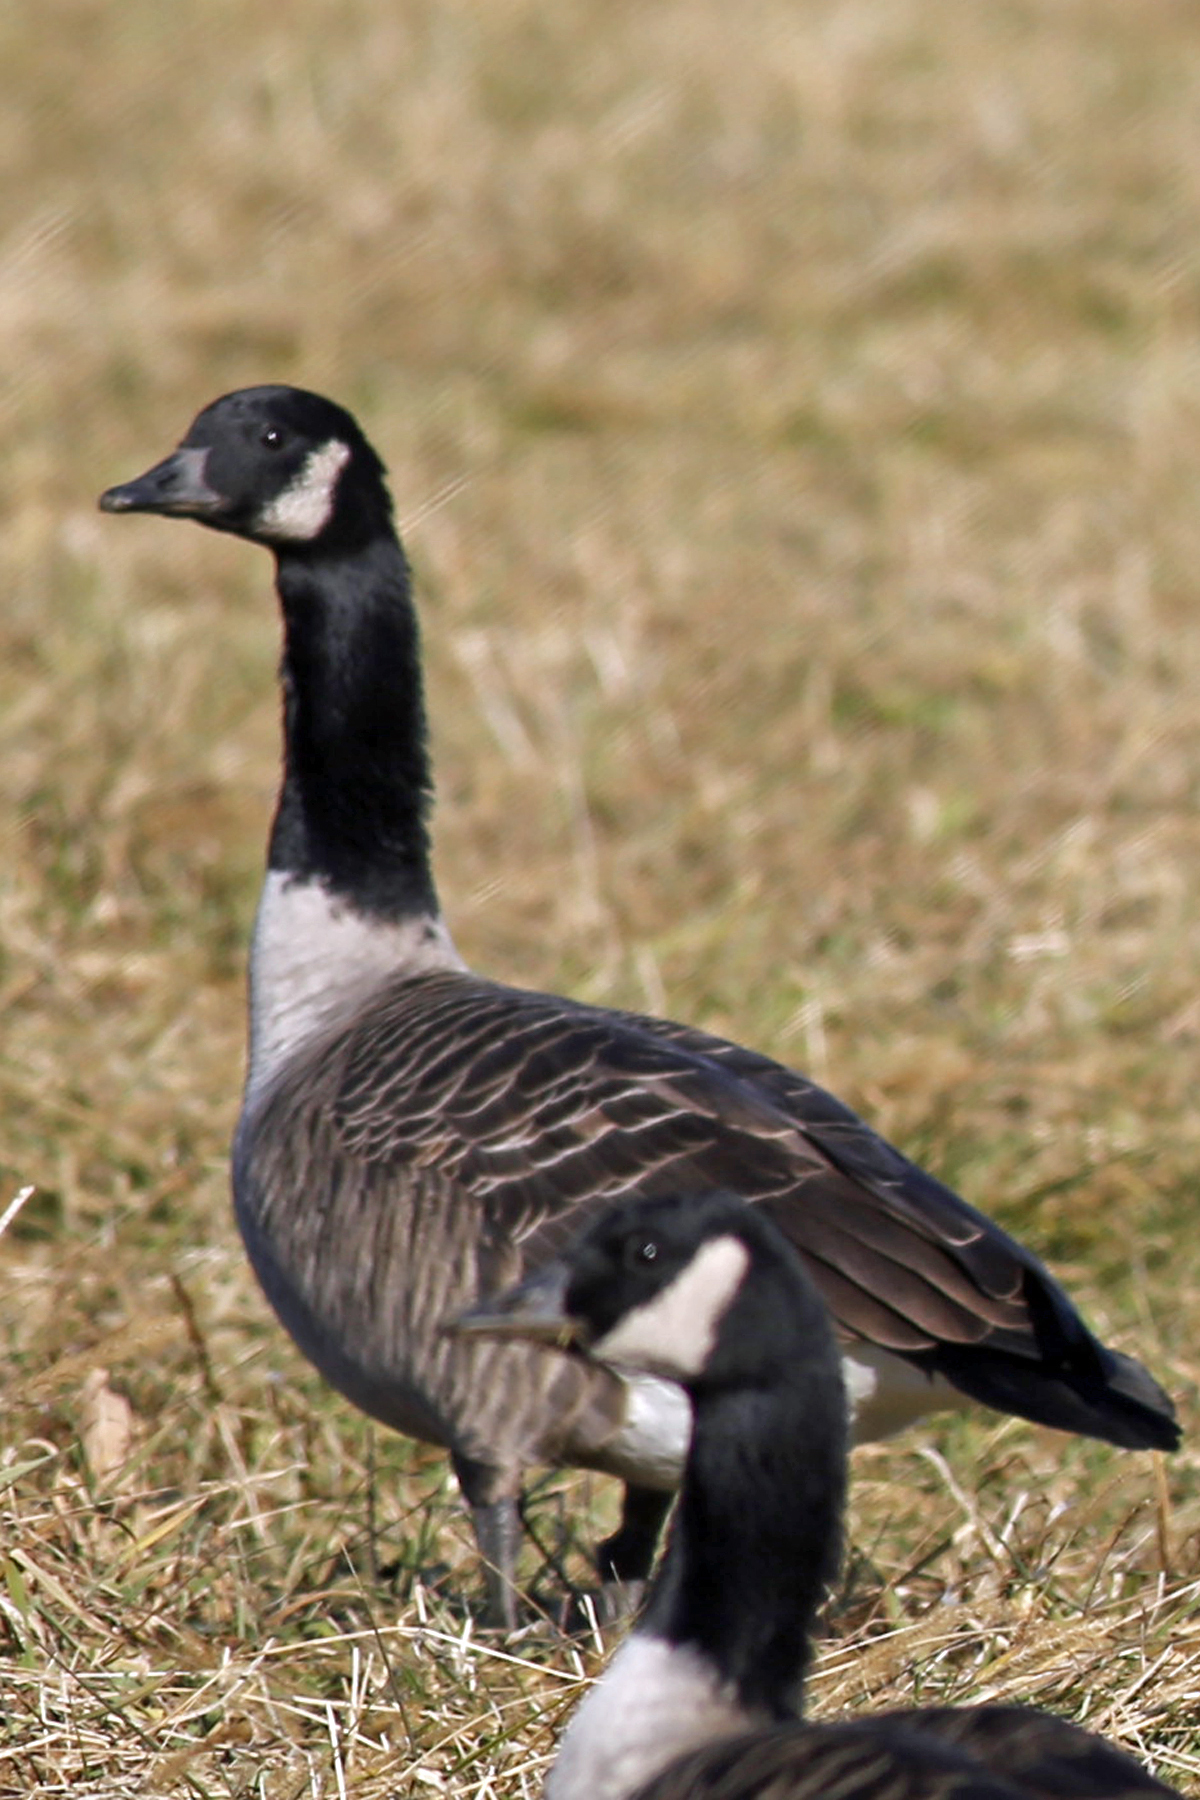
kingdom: Animalia
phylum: Chordata
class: Aves
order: Anseriformes
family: Anatidae
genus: Branta
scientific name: Branta canadensis
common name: Canada goose
